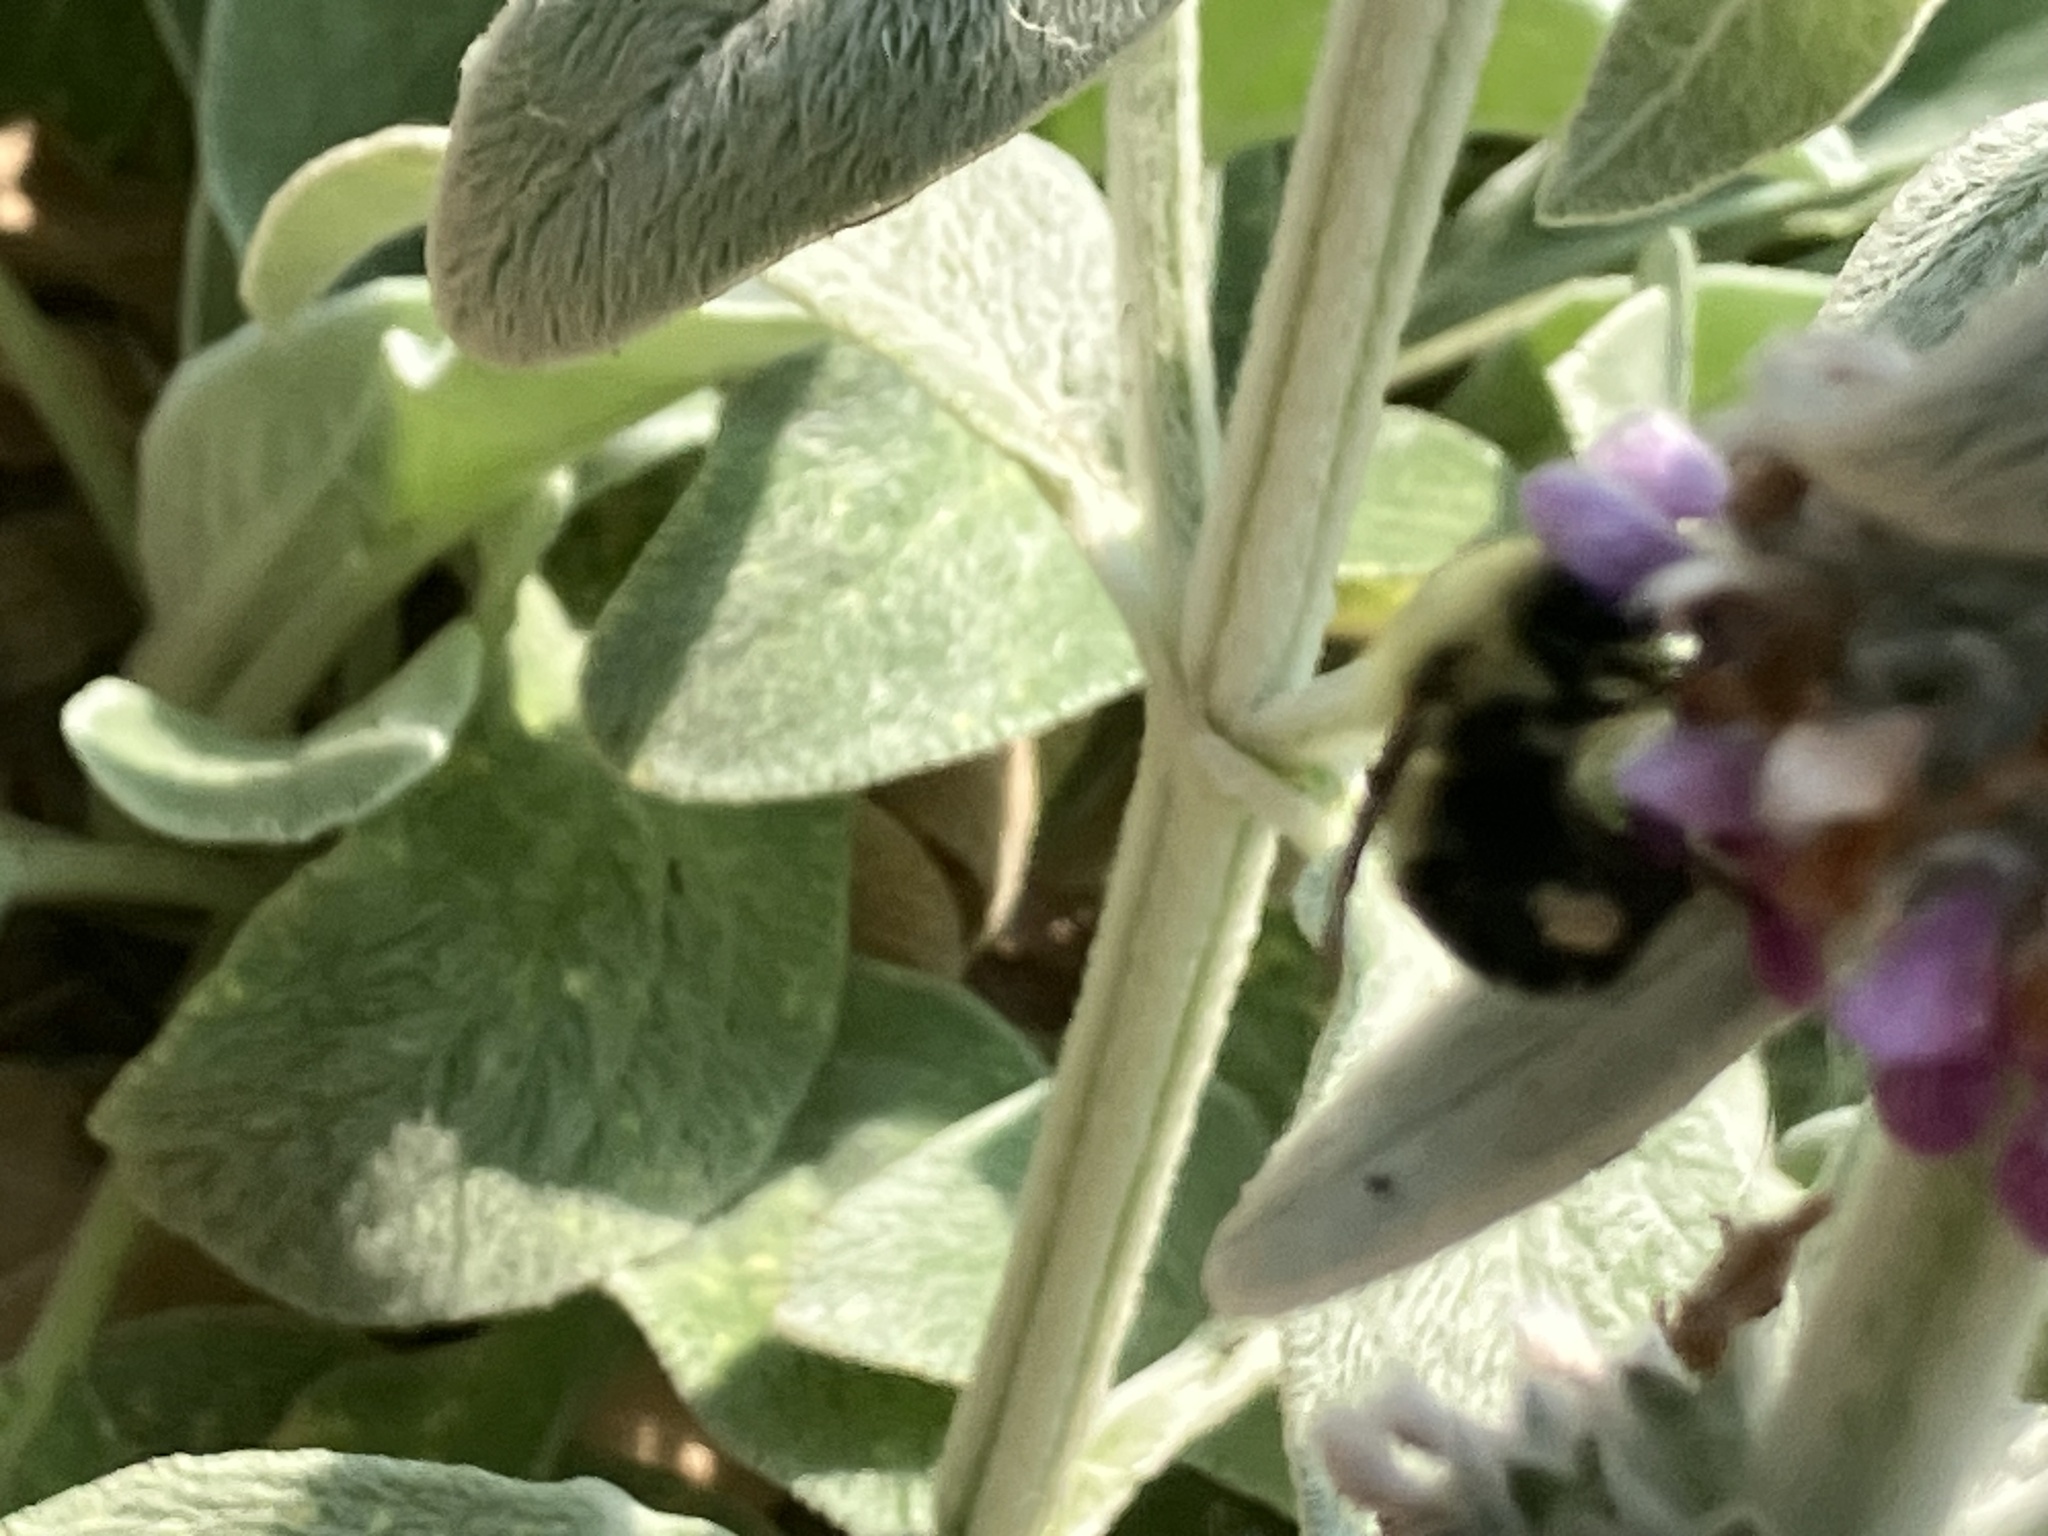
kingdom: Animalia
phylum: Arthropoda
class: Insecta
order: Hymenoptera
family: Apidae
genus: Bombus
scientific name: Bombus bimaculatus
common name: Two-spotted bumble bee
